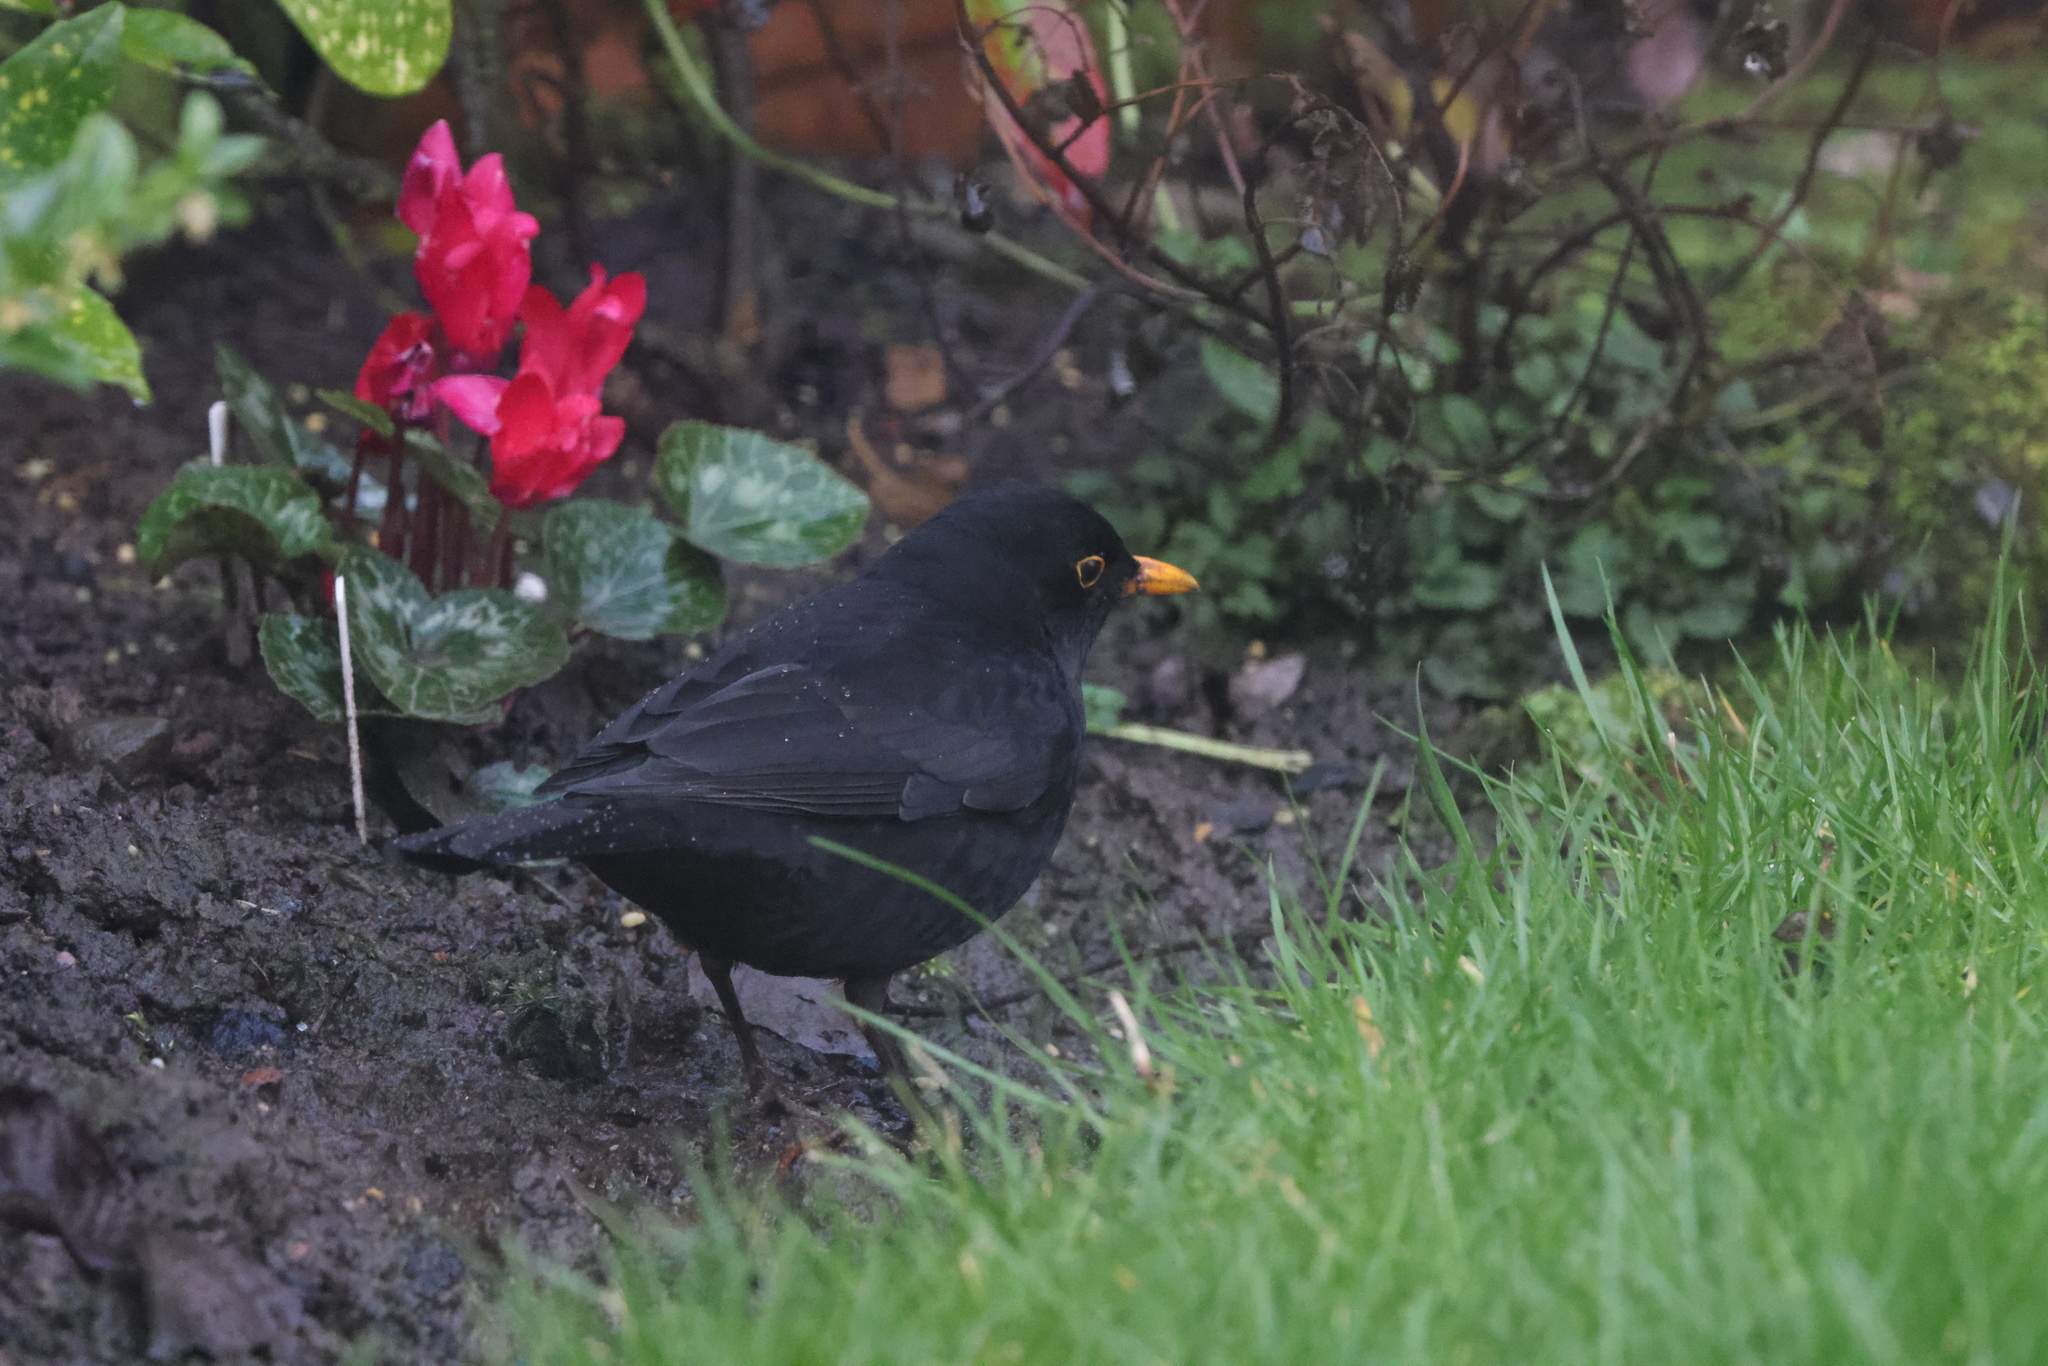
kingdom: Animalia
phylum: Chordata
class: Aves
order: Passeriformes
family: Turdidae
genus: Turdus
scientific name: Turdus merula
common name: Common blackbird
